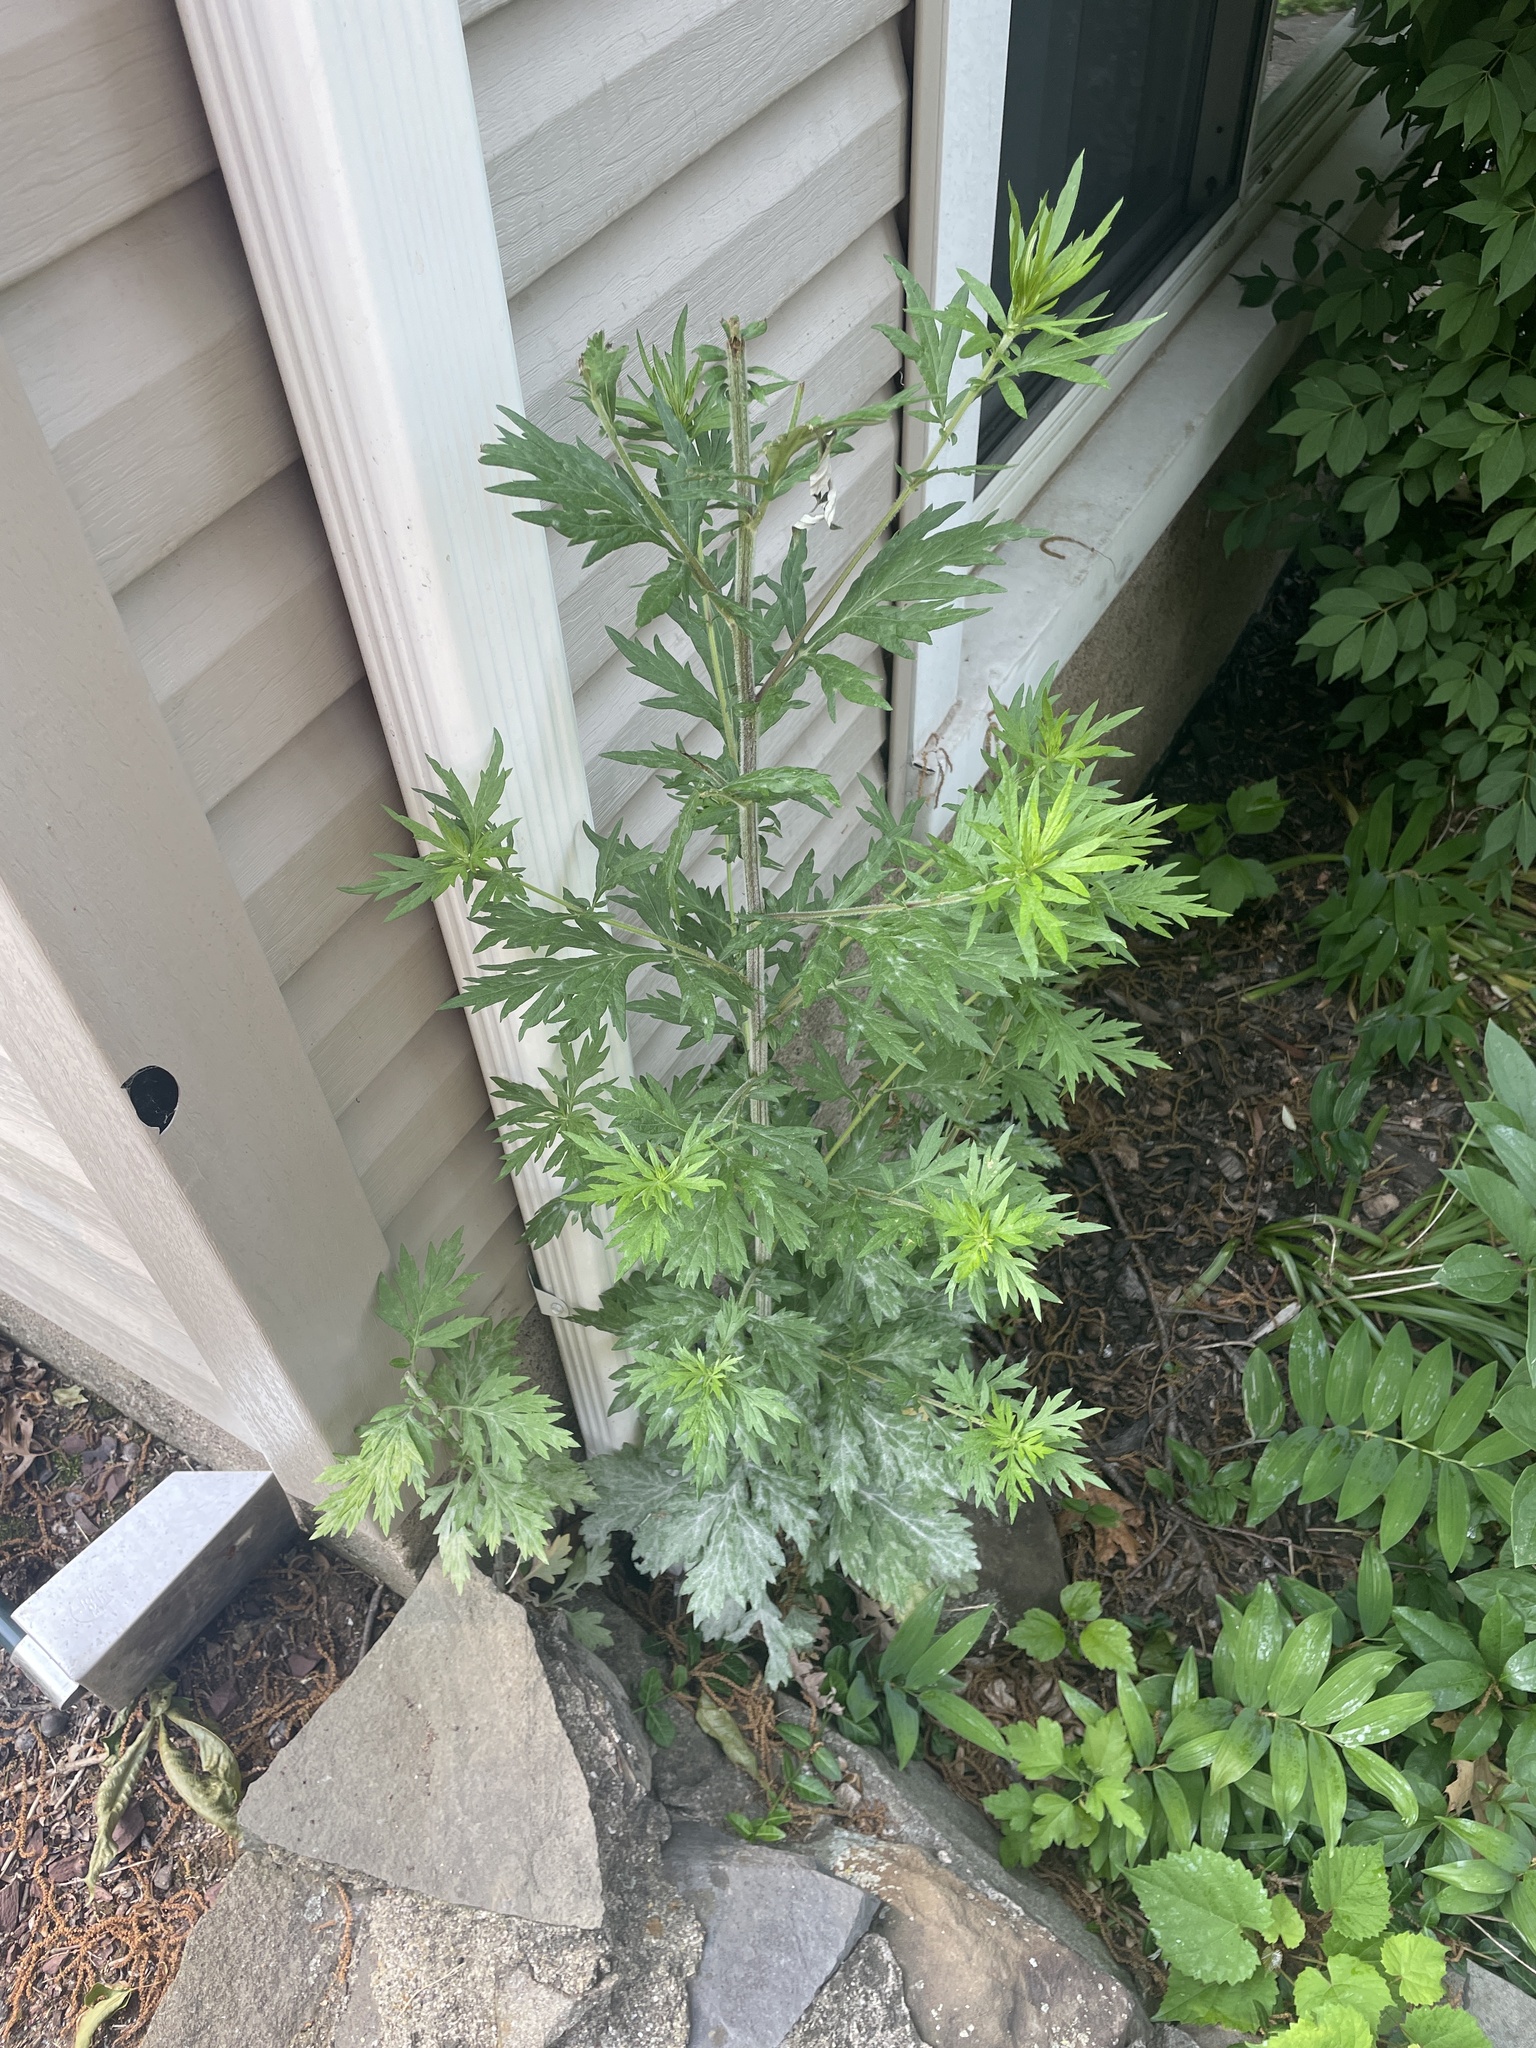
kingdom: Plantae
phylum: Tracheophyta
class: Magnoliopsida
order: Asterales
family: Asteraceae
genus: Artemisia
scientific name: Artemisia vulgaris
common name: Mugwort
